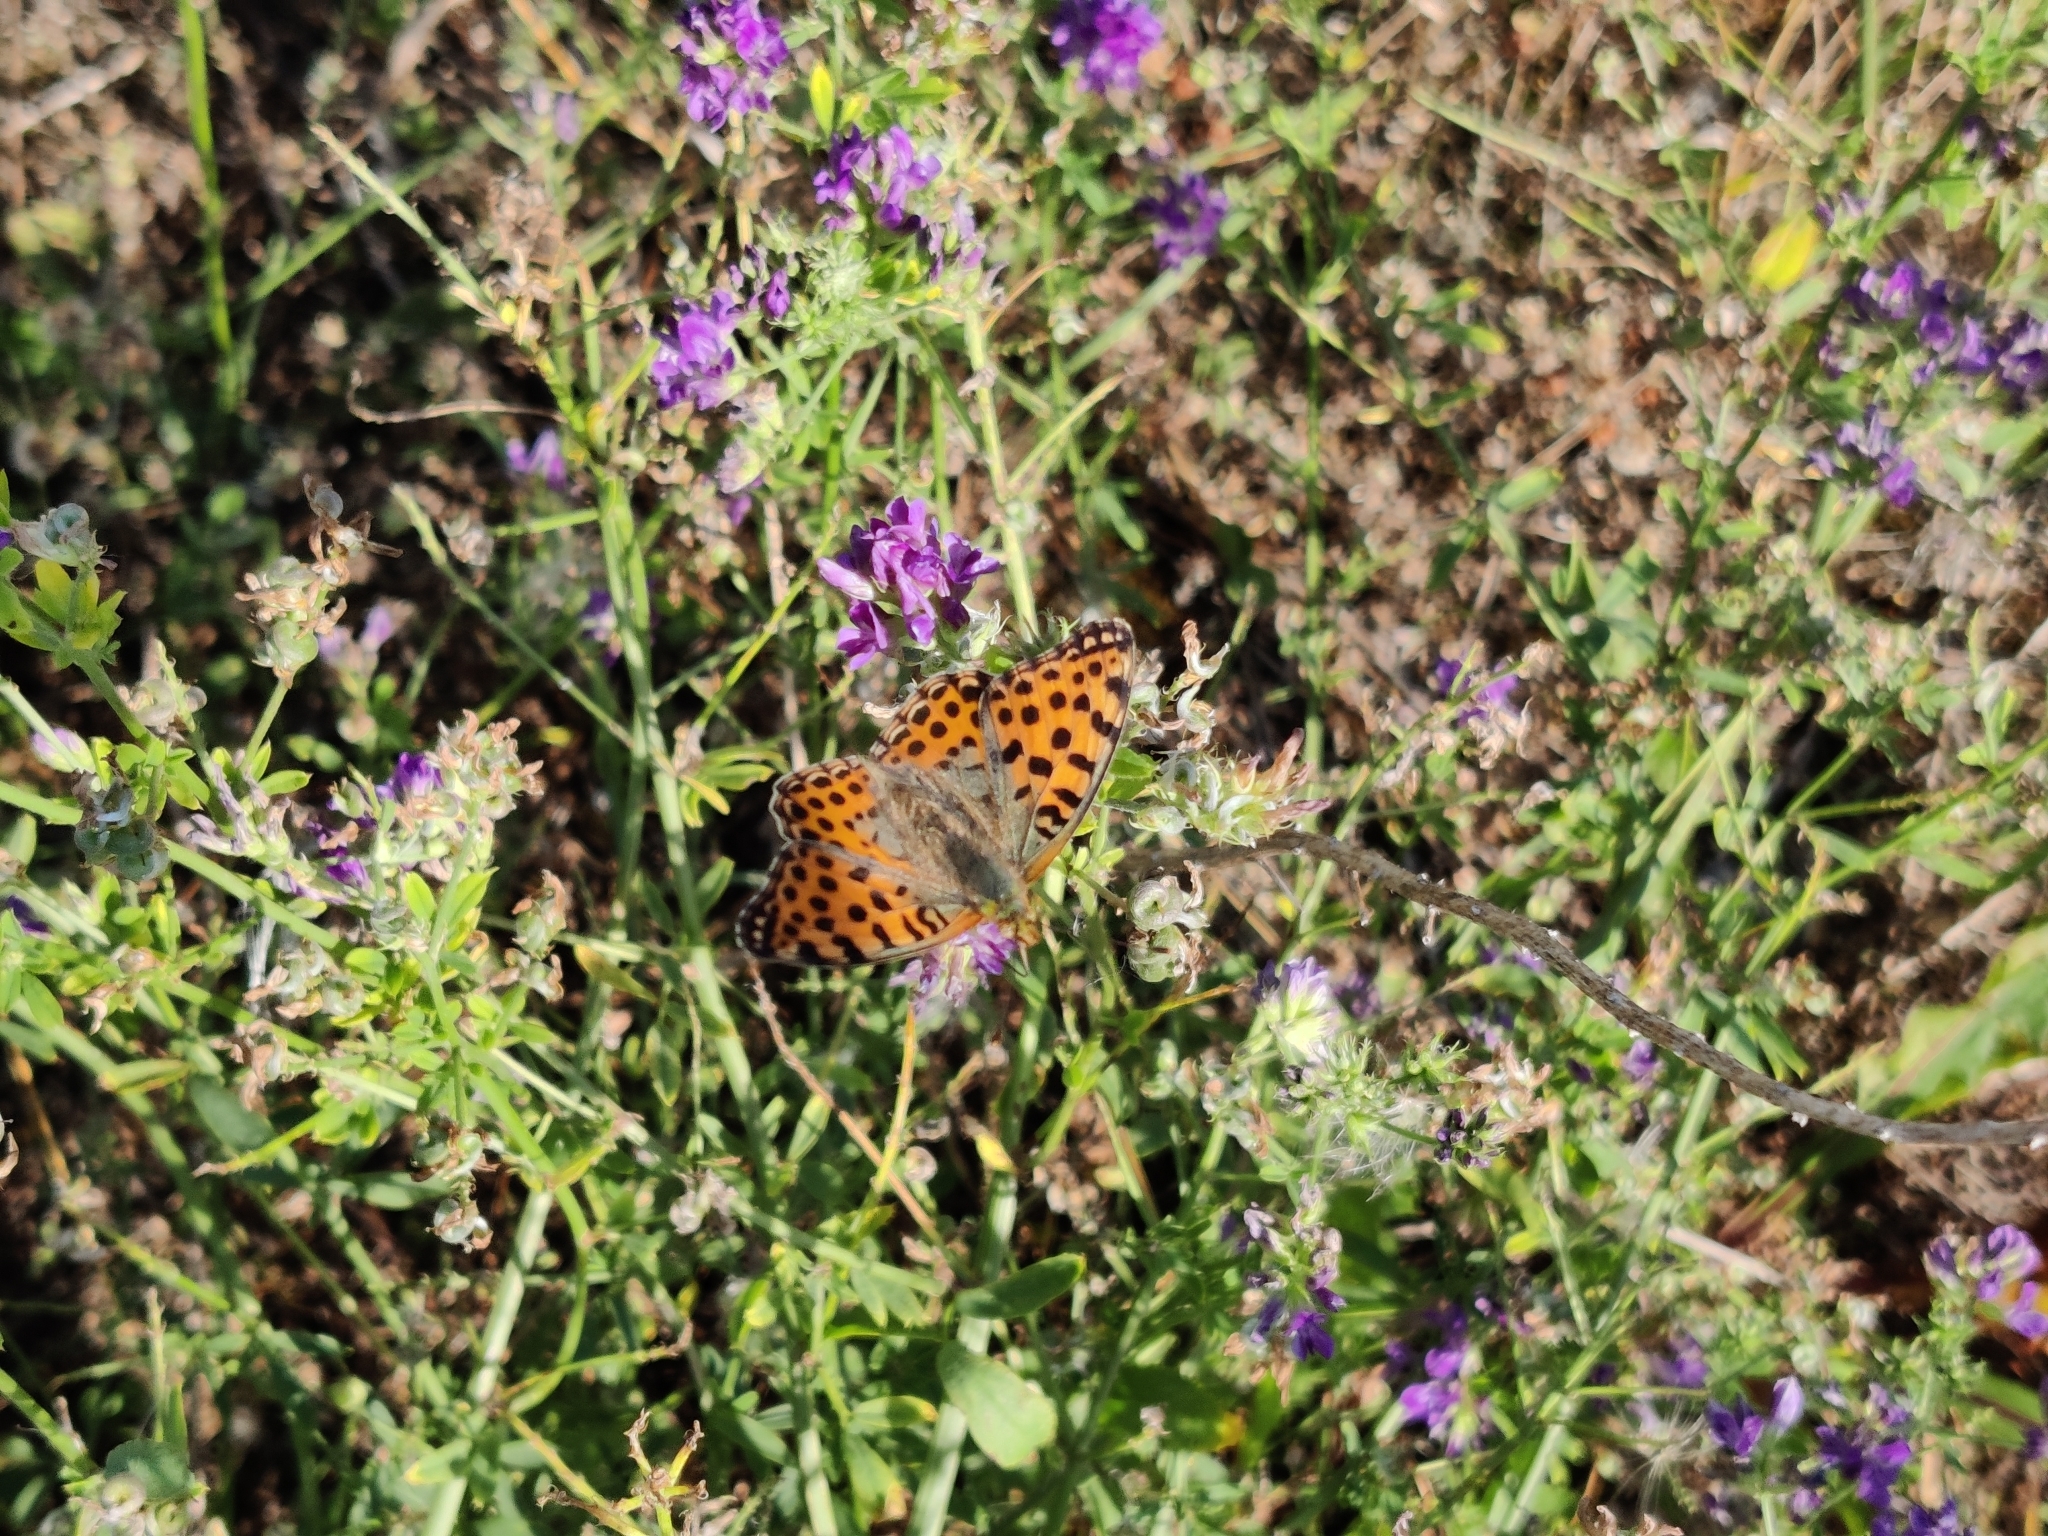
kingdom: Animalia
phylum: Arthropoda
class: Insecta
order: Lepidoptera
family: Nymphalidae
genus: Issoria
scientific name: Issoria lathonia
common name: Queen of spain fritillary
